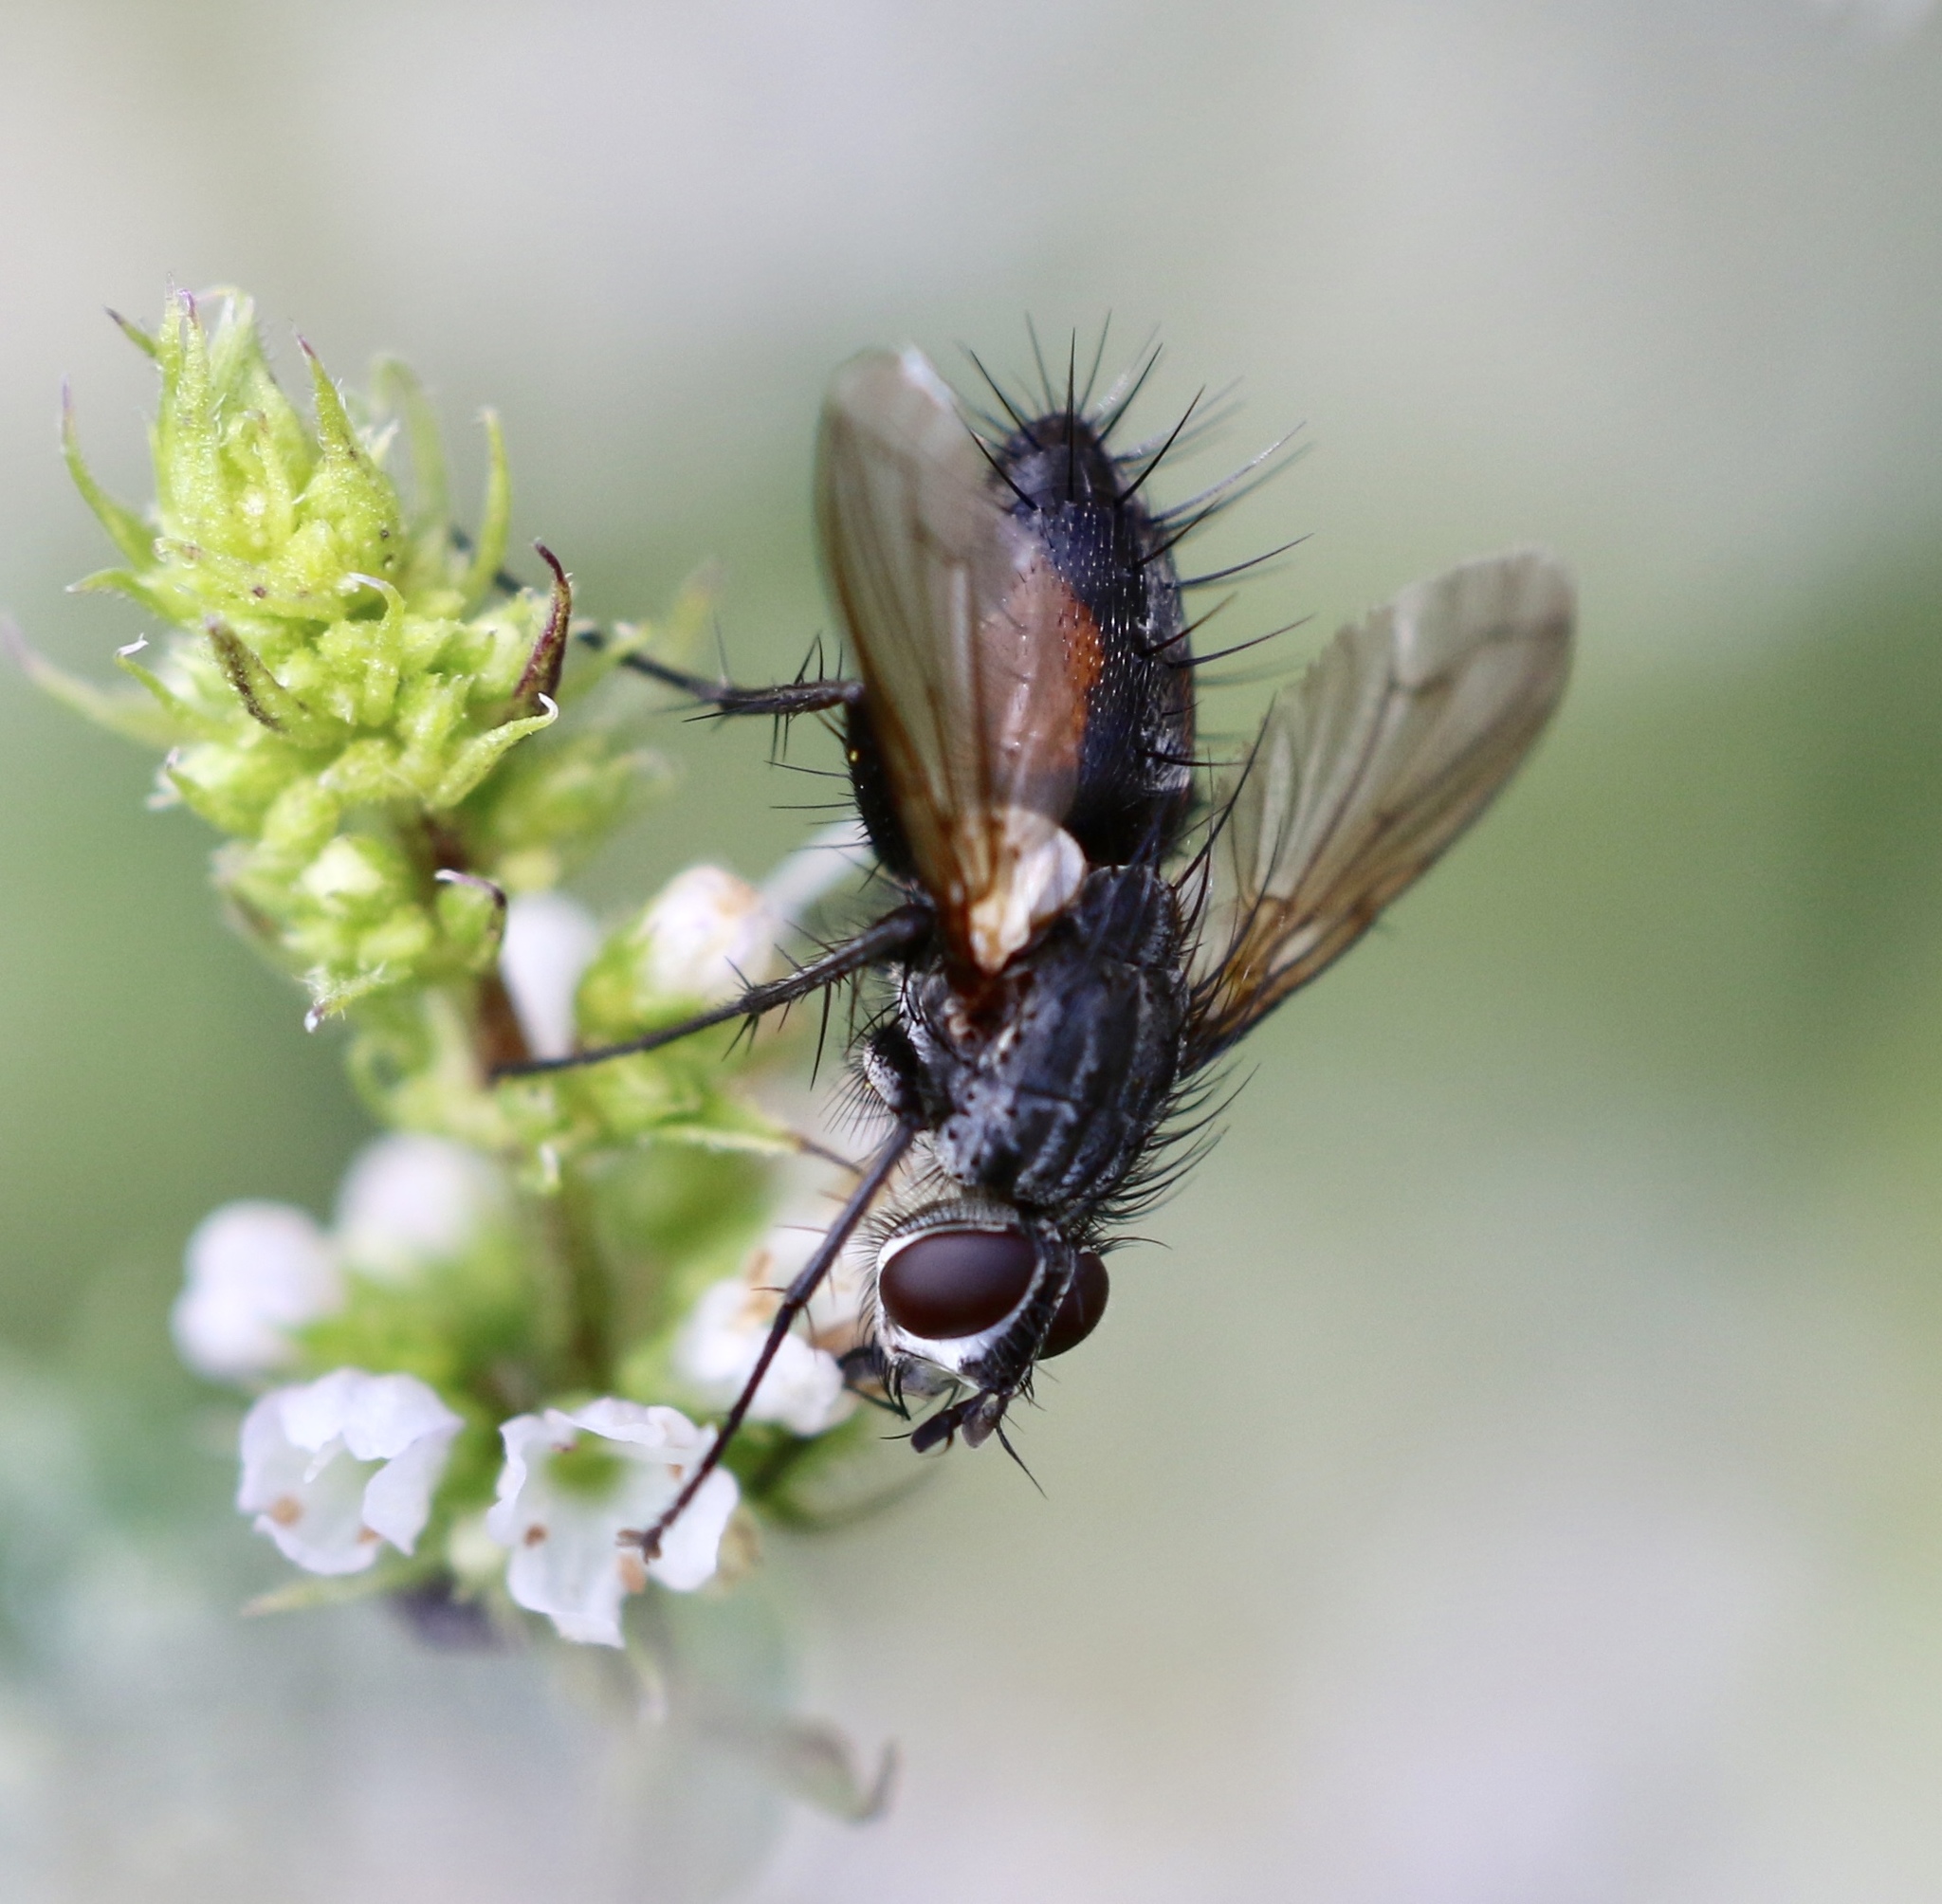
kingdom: Animalia
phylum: Arthropoda
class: Insecta
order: Diptera
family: Tachinidae
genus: Eriothrix
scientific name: Eriothrix rufomaculatus
